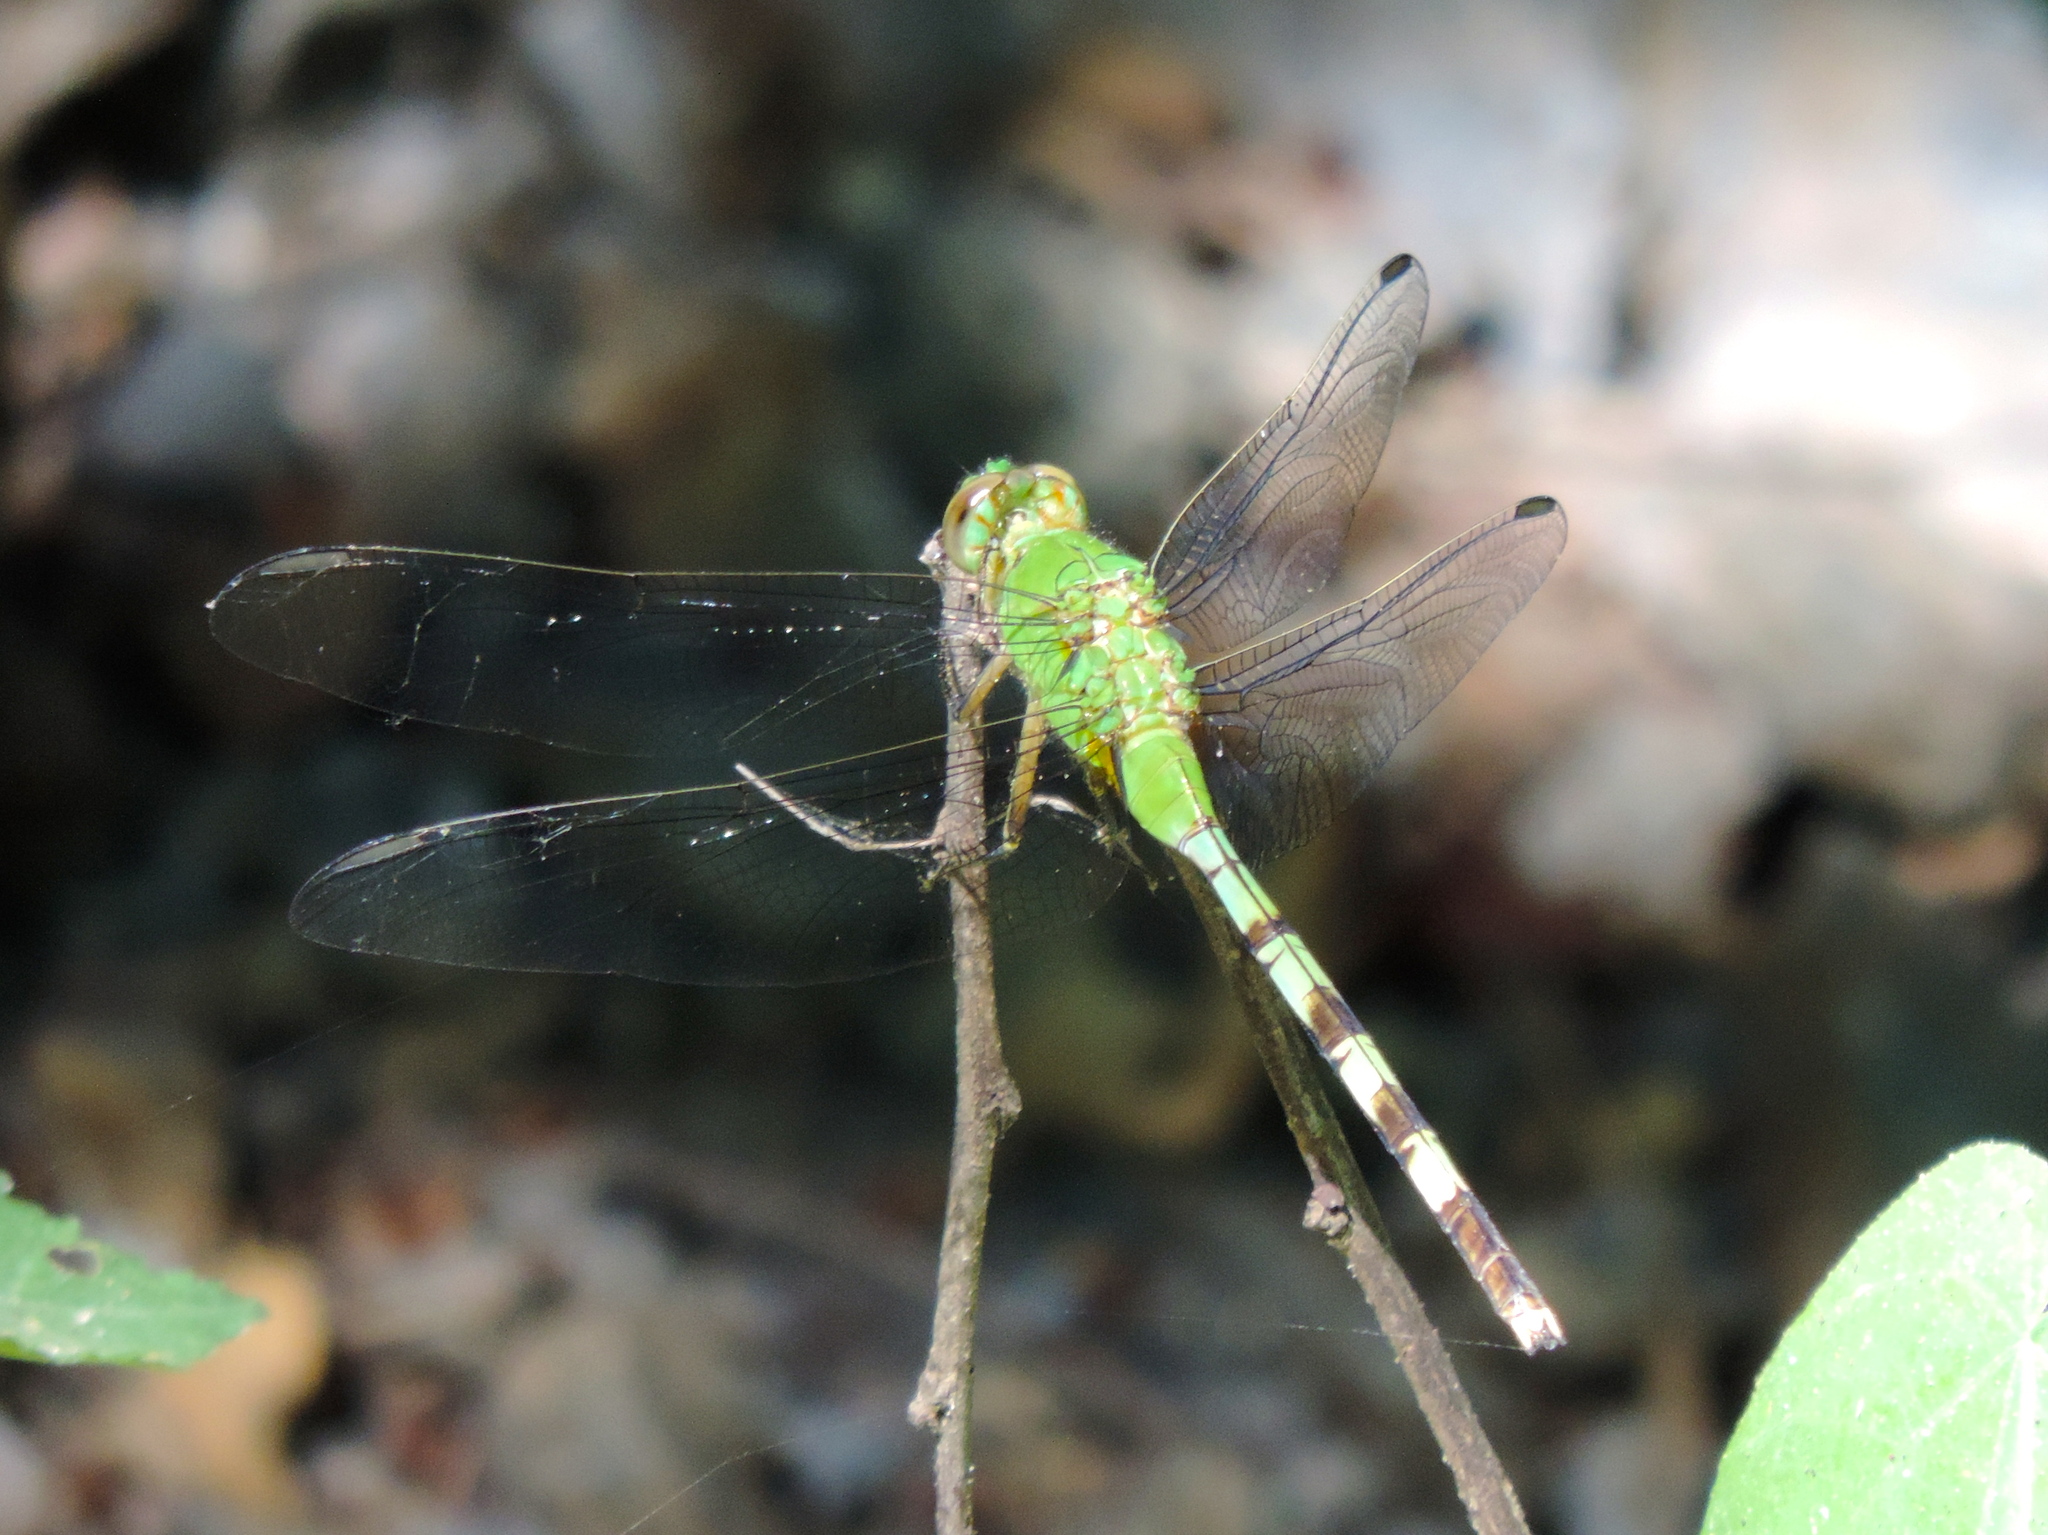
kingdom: Animalia
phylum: Arthropoda
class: Insecta
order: Odonata
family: Libellulidae
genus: Erythemis
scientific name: Erythemis vesiculosa
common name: Great pondhawk
